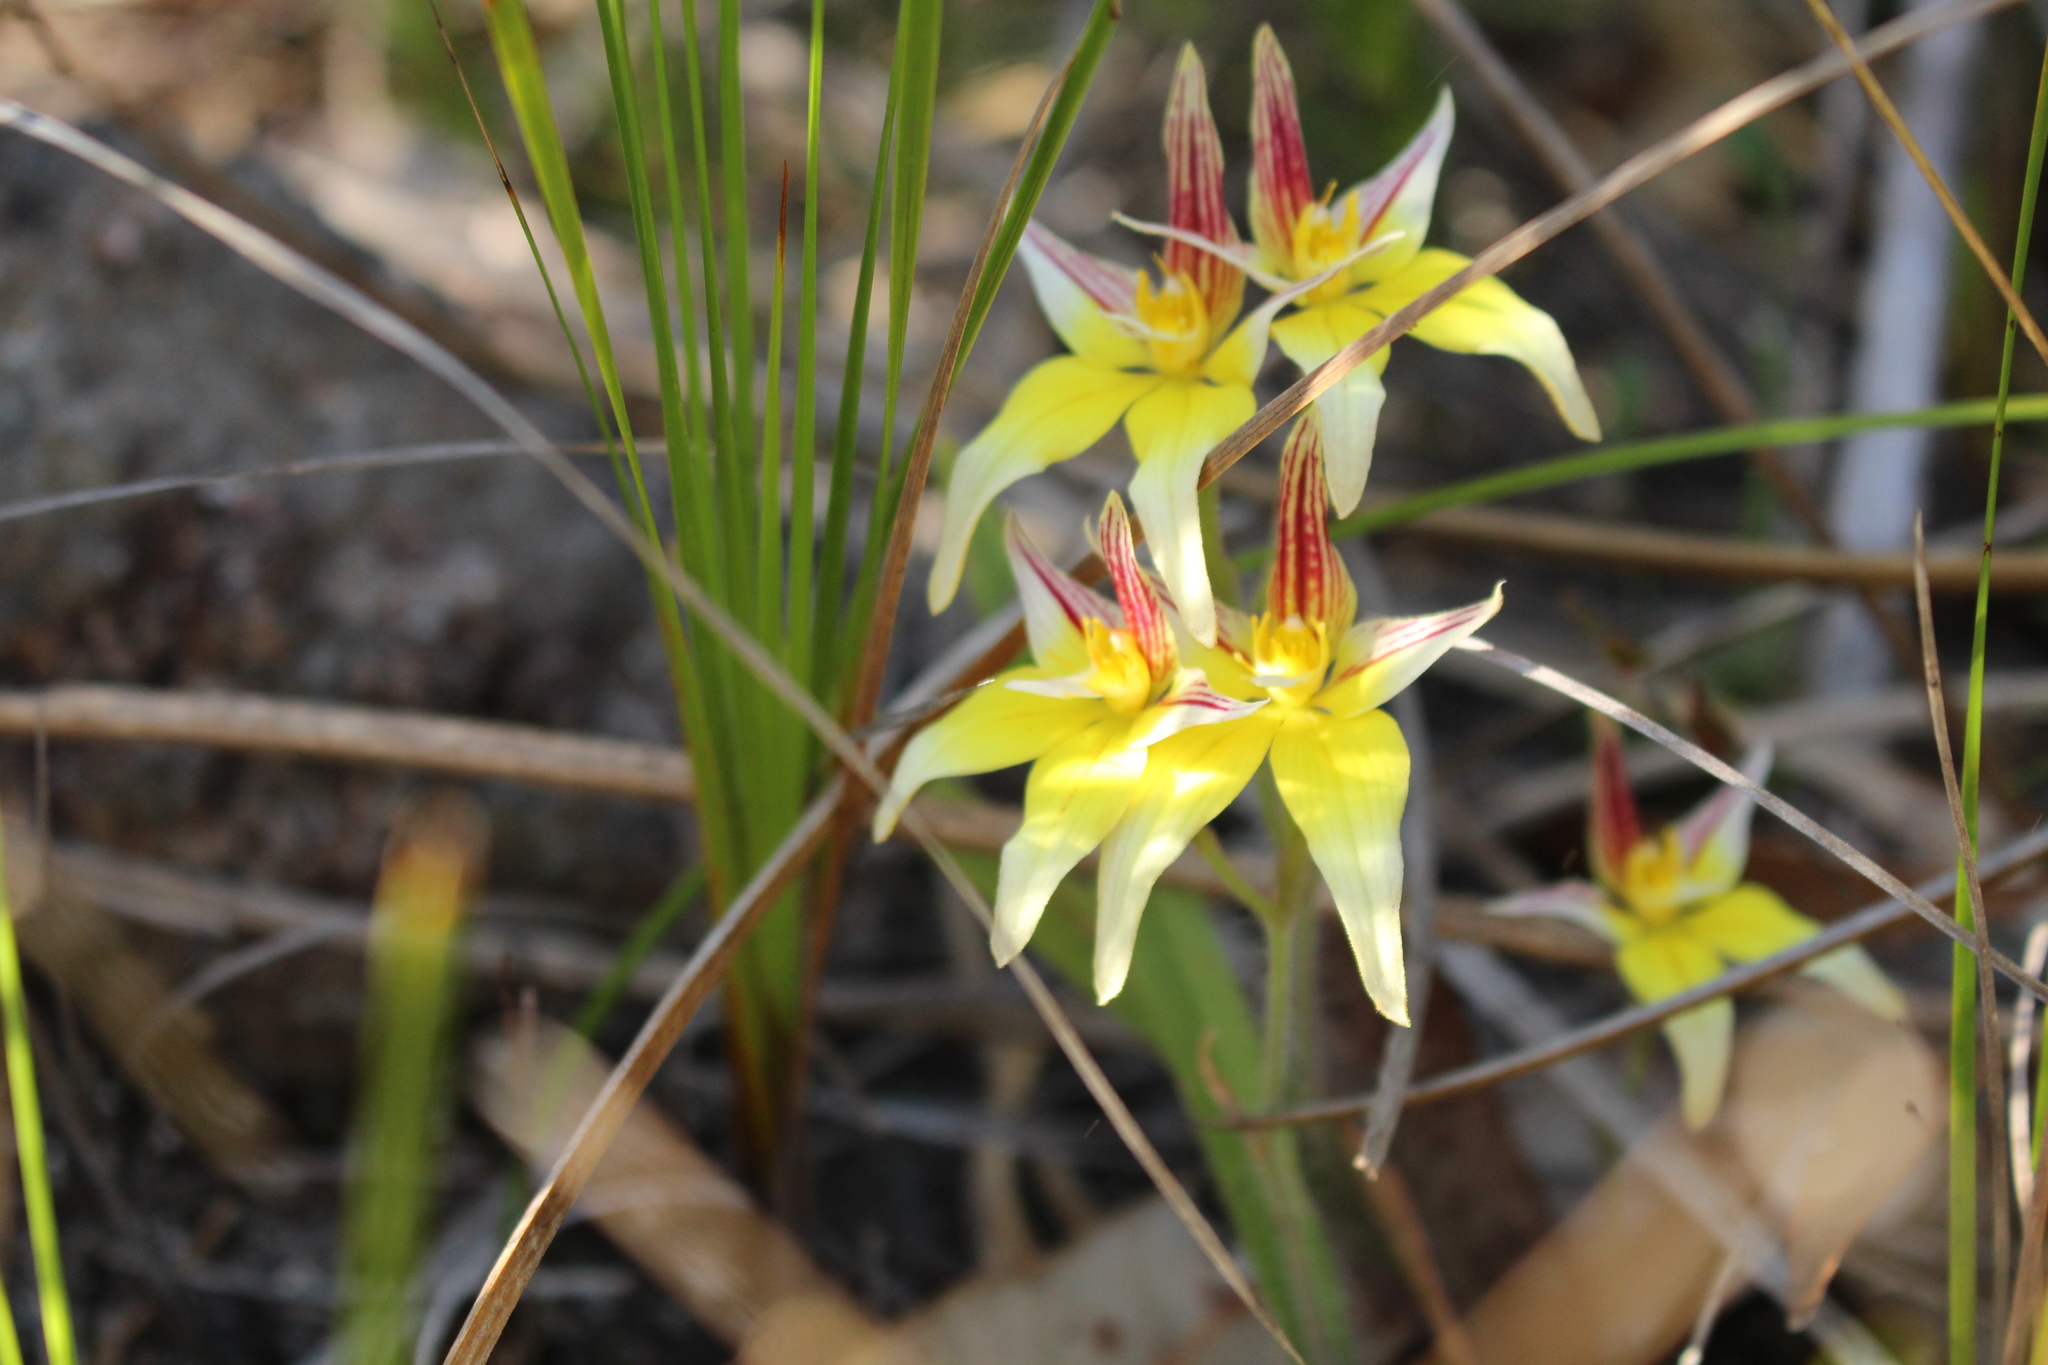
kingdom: Plantae
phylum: Tracheophyta
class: Liliopsida
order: Asparagales
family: Orchidaceae
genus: Caladenia
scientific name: Caladenia flava
